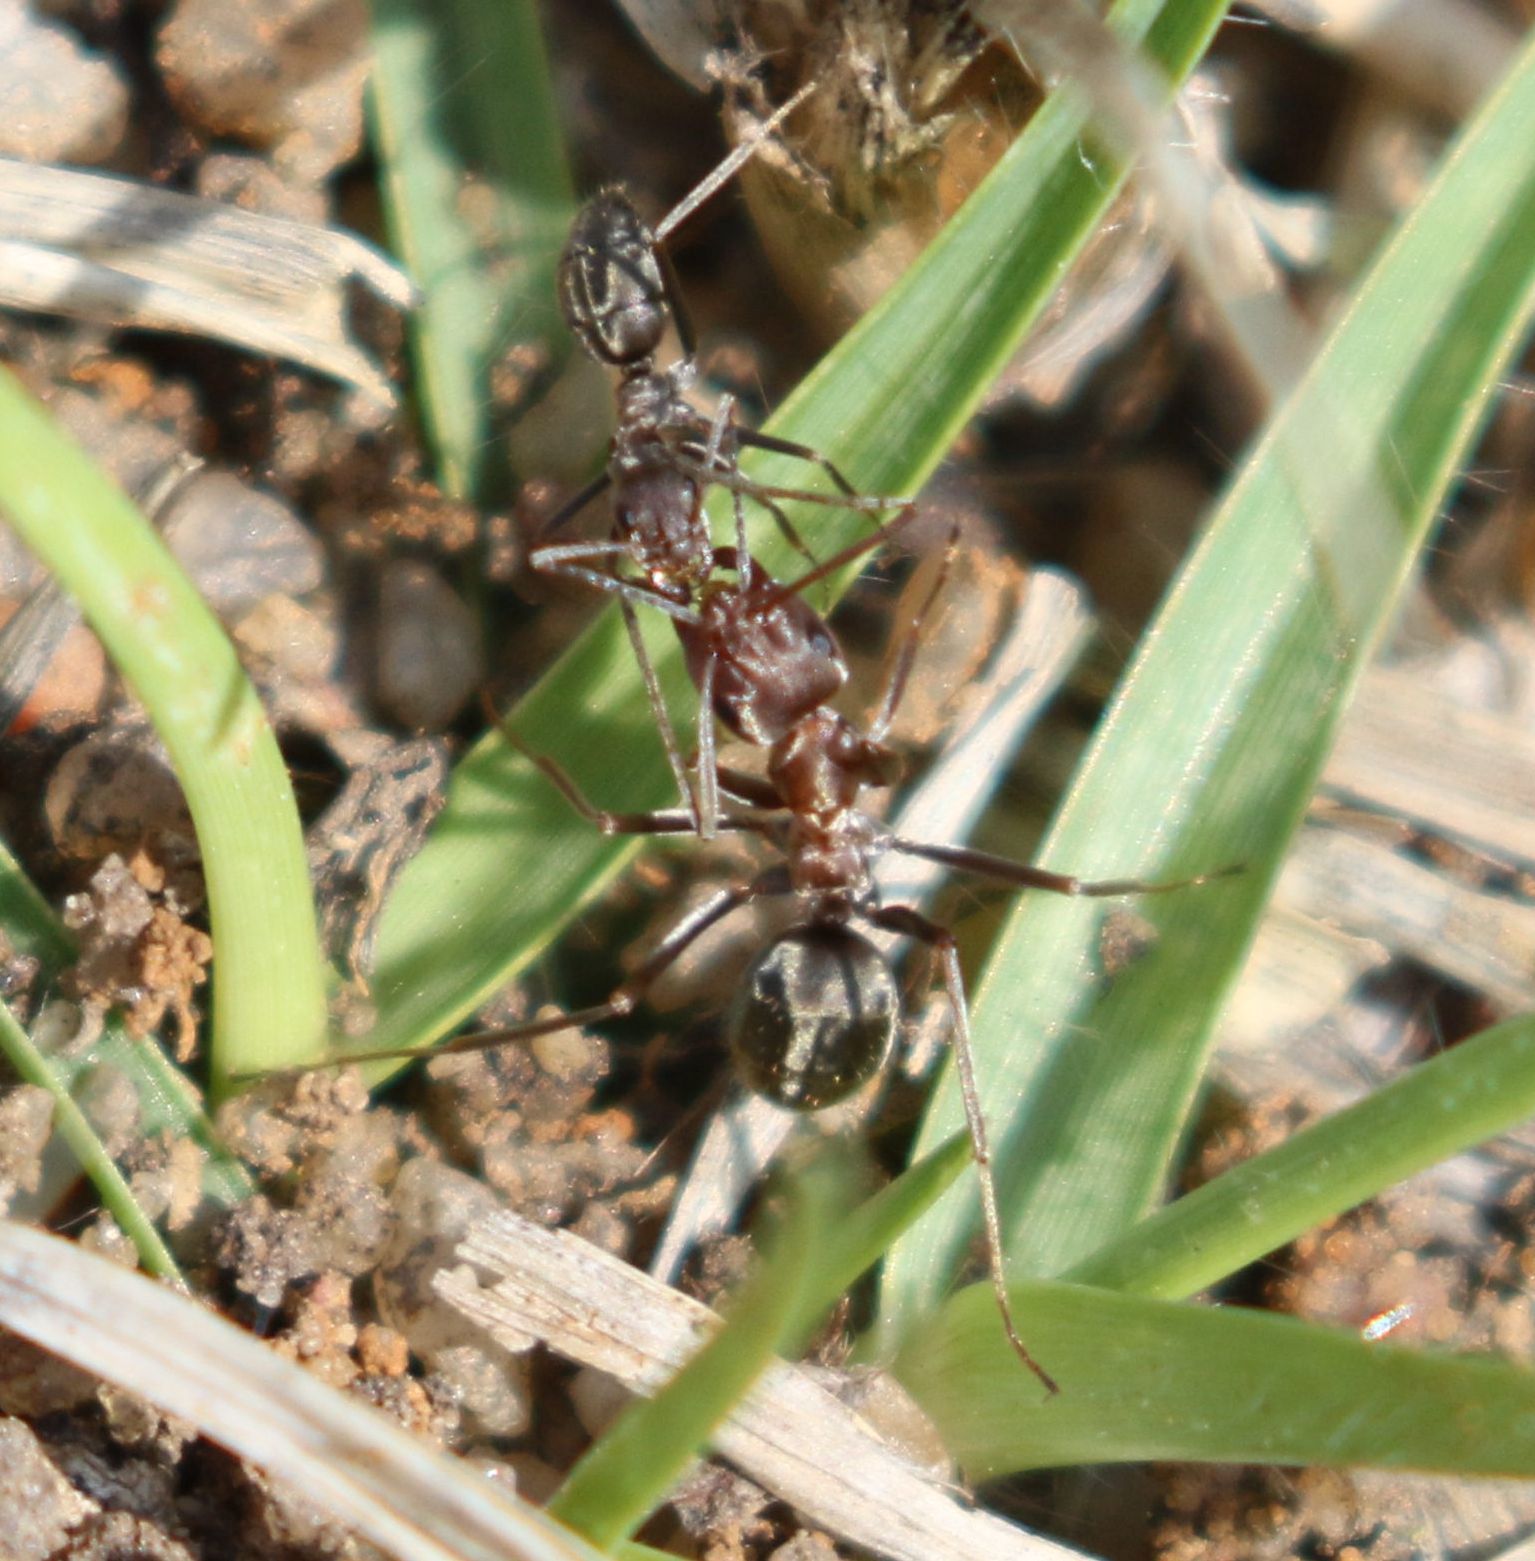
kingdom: Animalia
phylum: Arthropoda
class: Insecta
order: Hymenoptera
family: Formicidae
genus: Anoplolepis
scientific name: Anoplolepis custodiens
